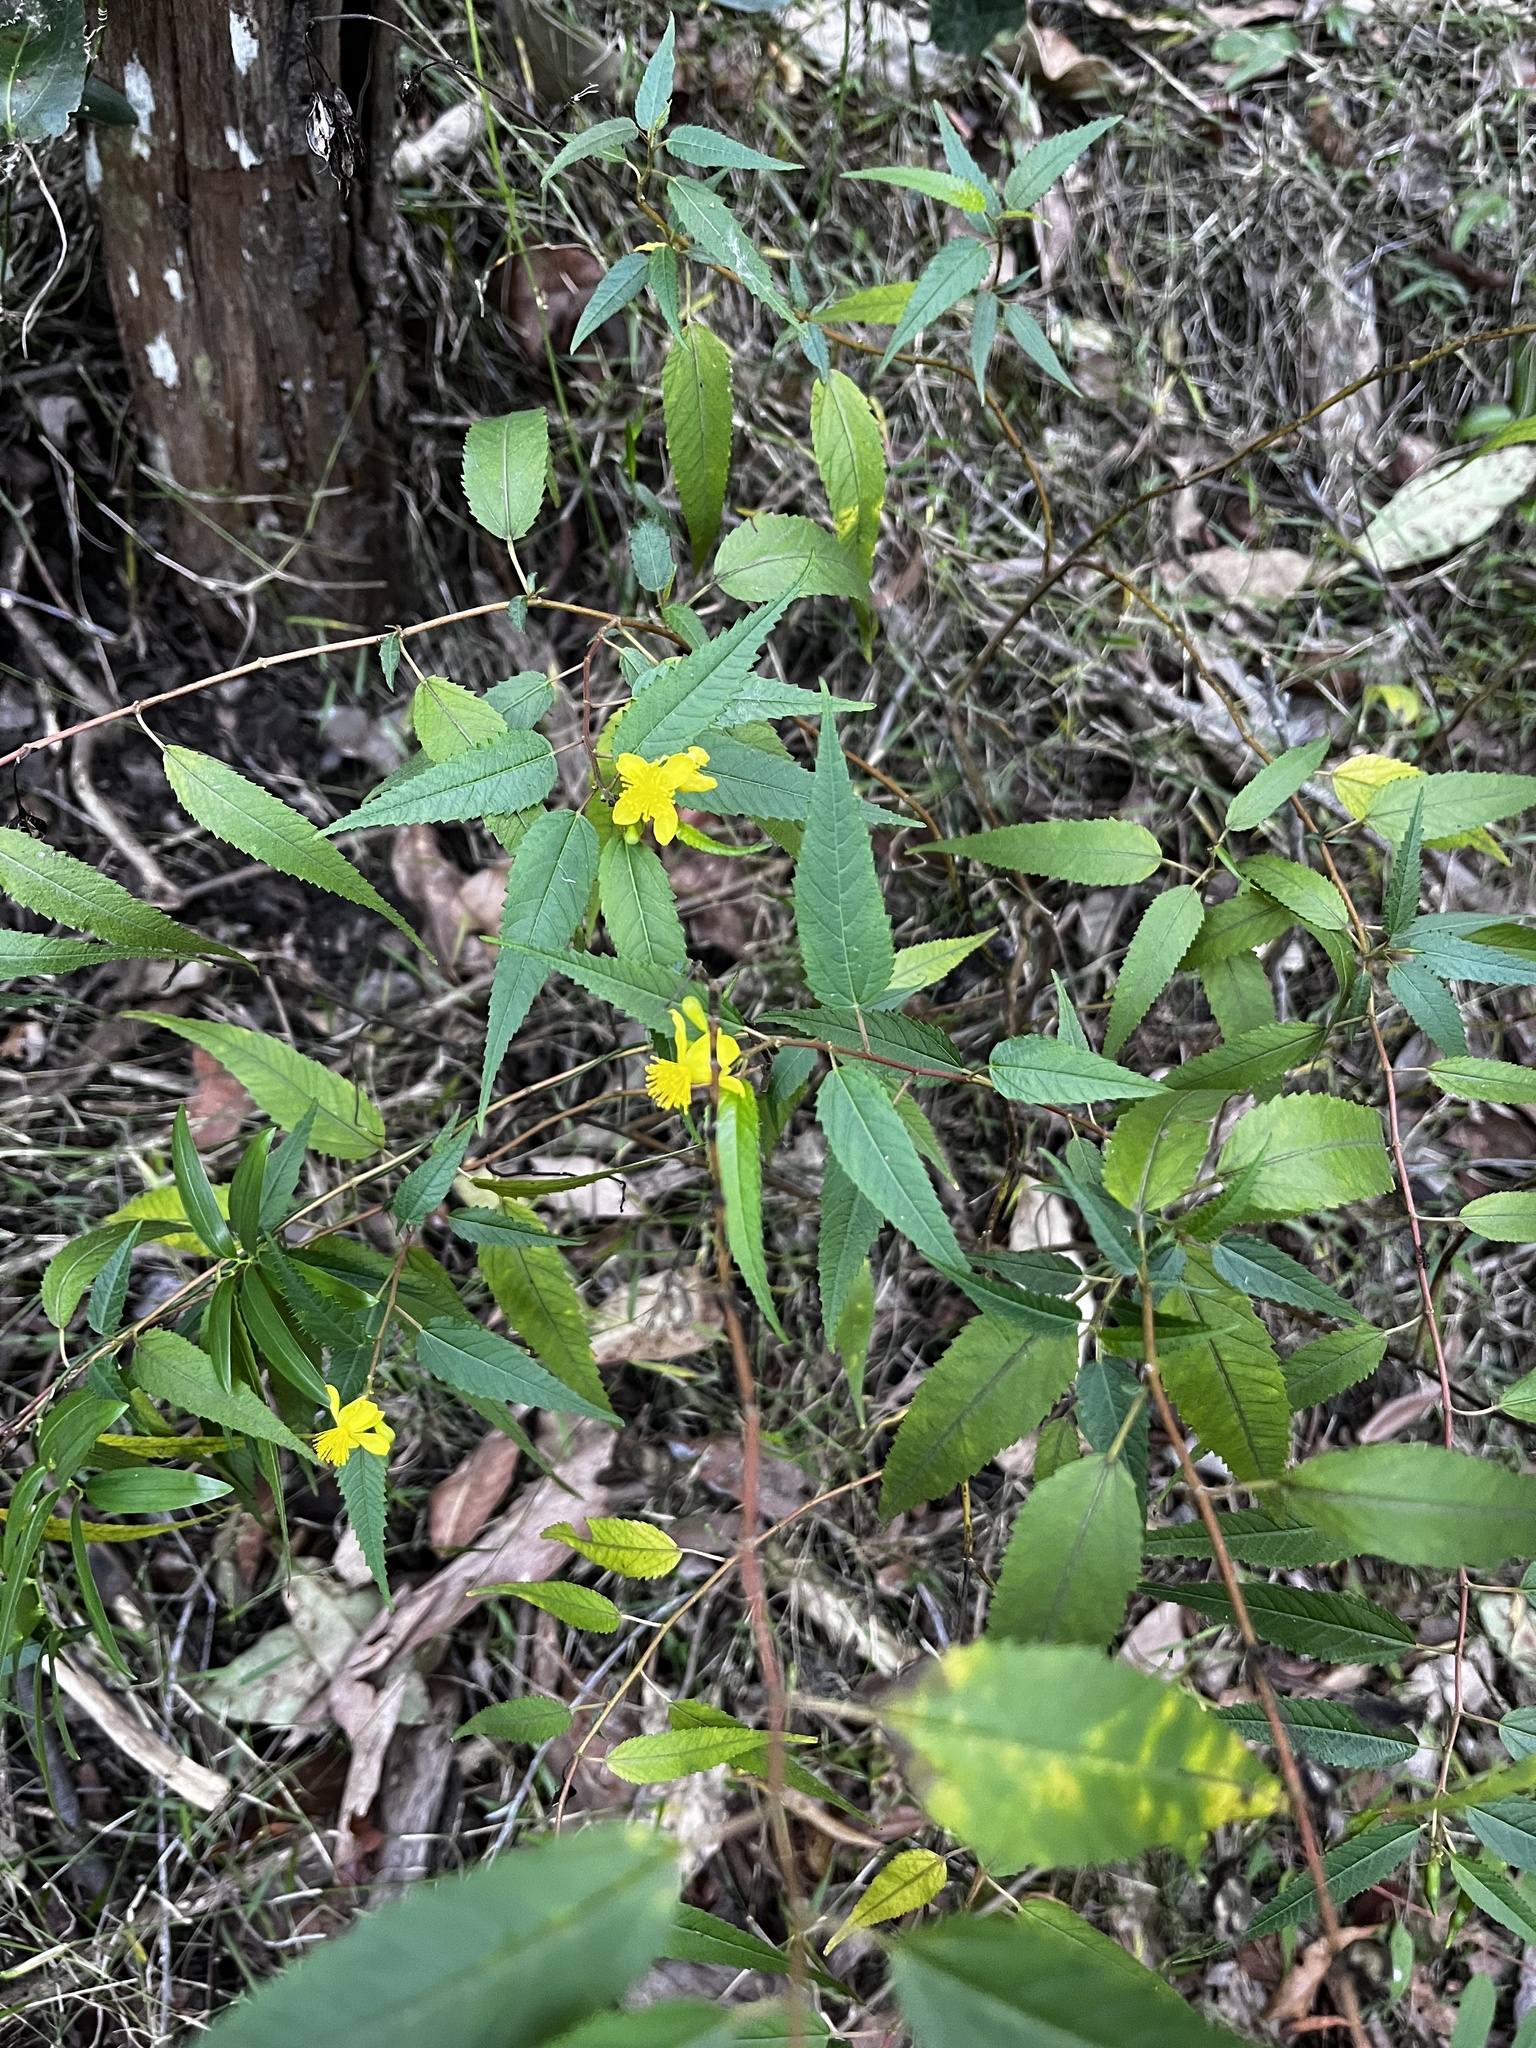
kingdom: Plantae
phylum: Tracheophyta
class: Magnoliopsida
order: Malvales
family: Malvaceae
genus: Corchorus
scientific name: Corchorus cunninghamii
